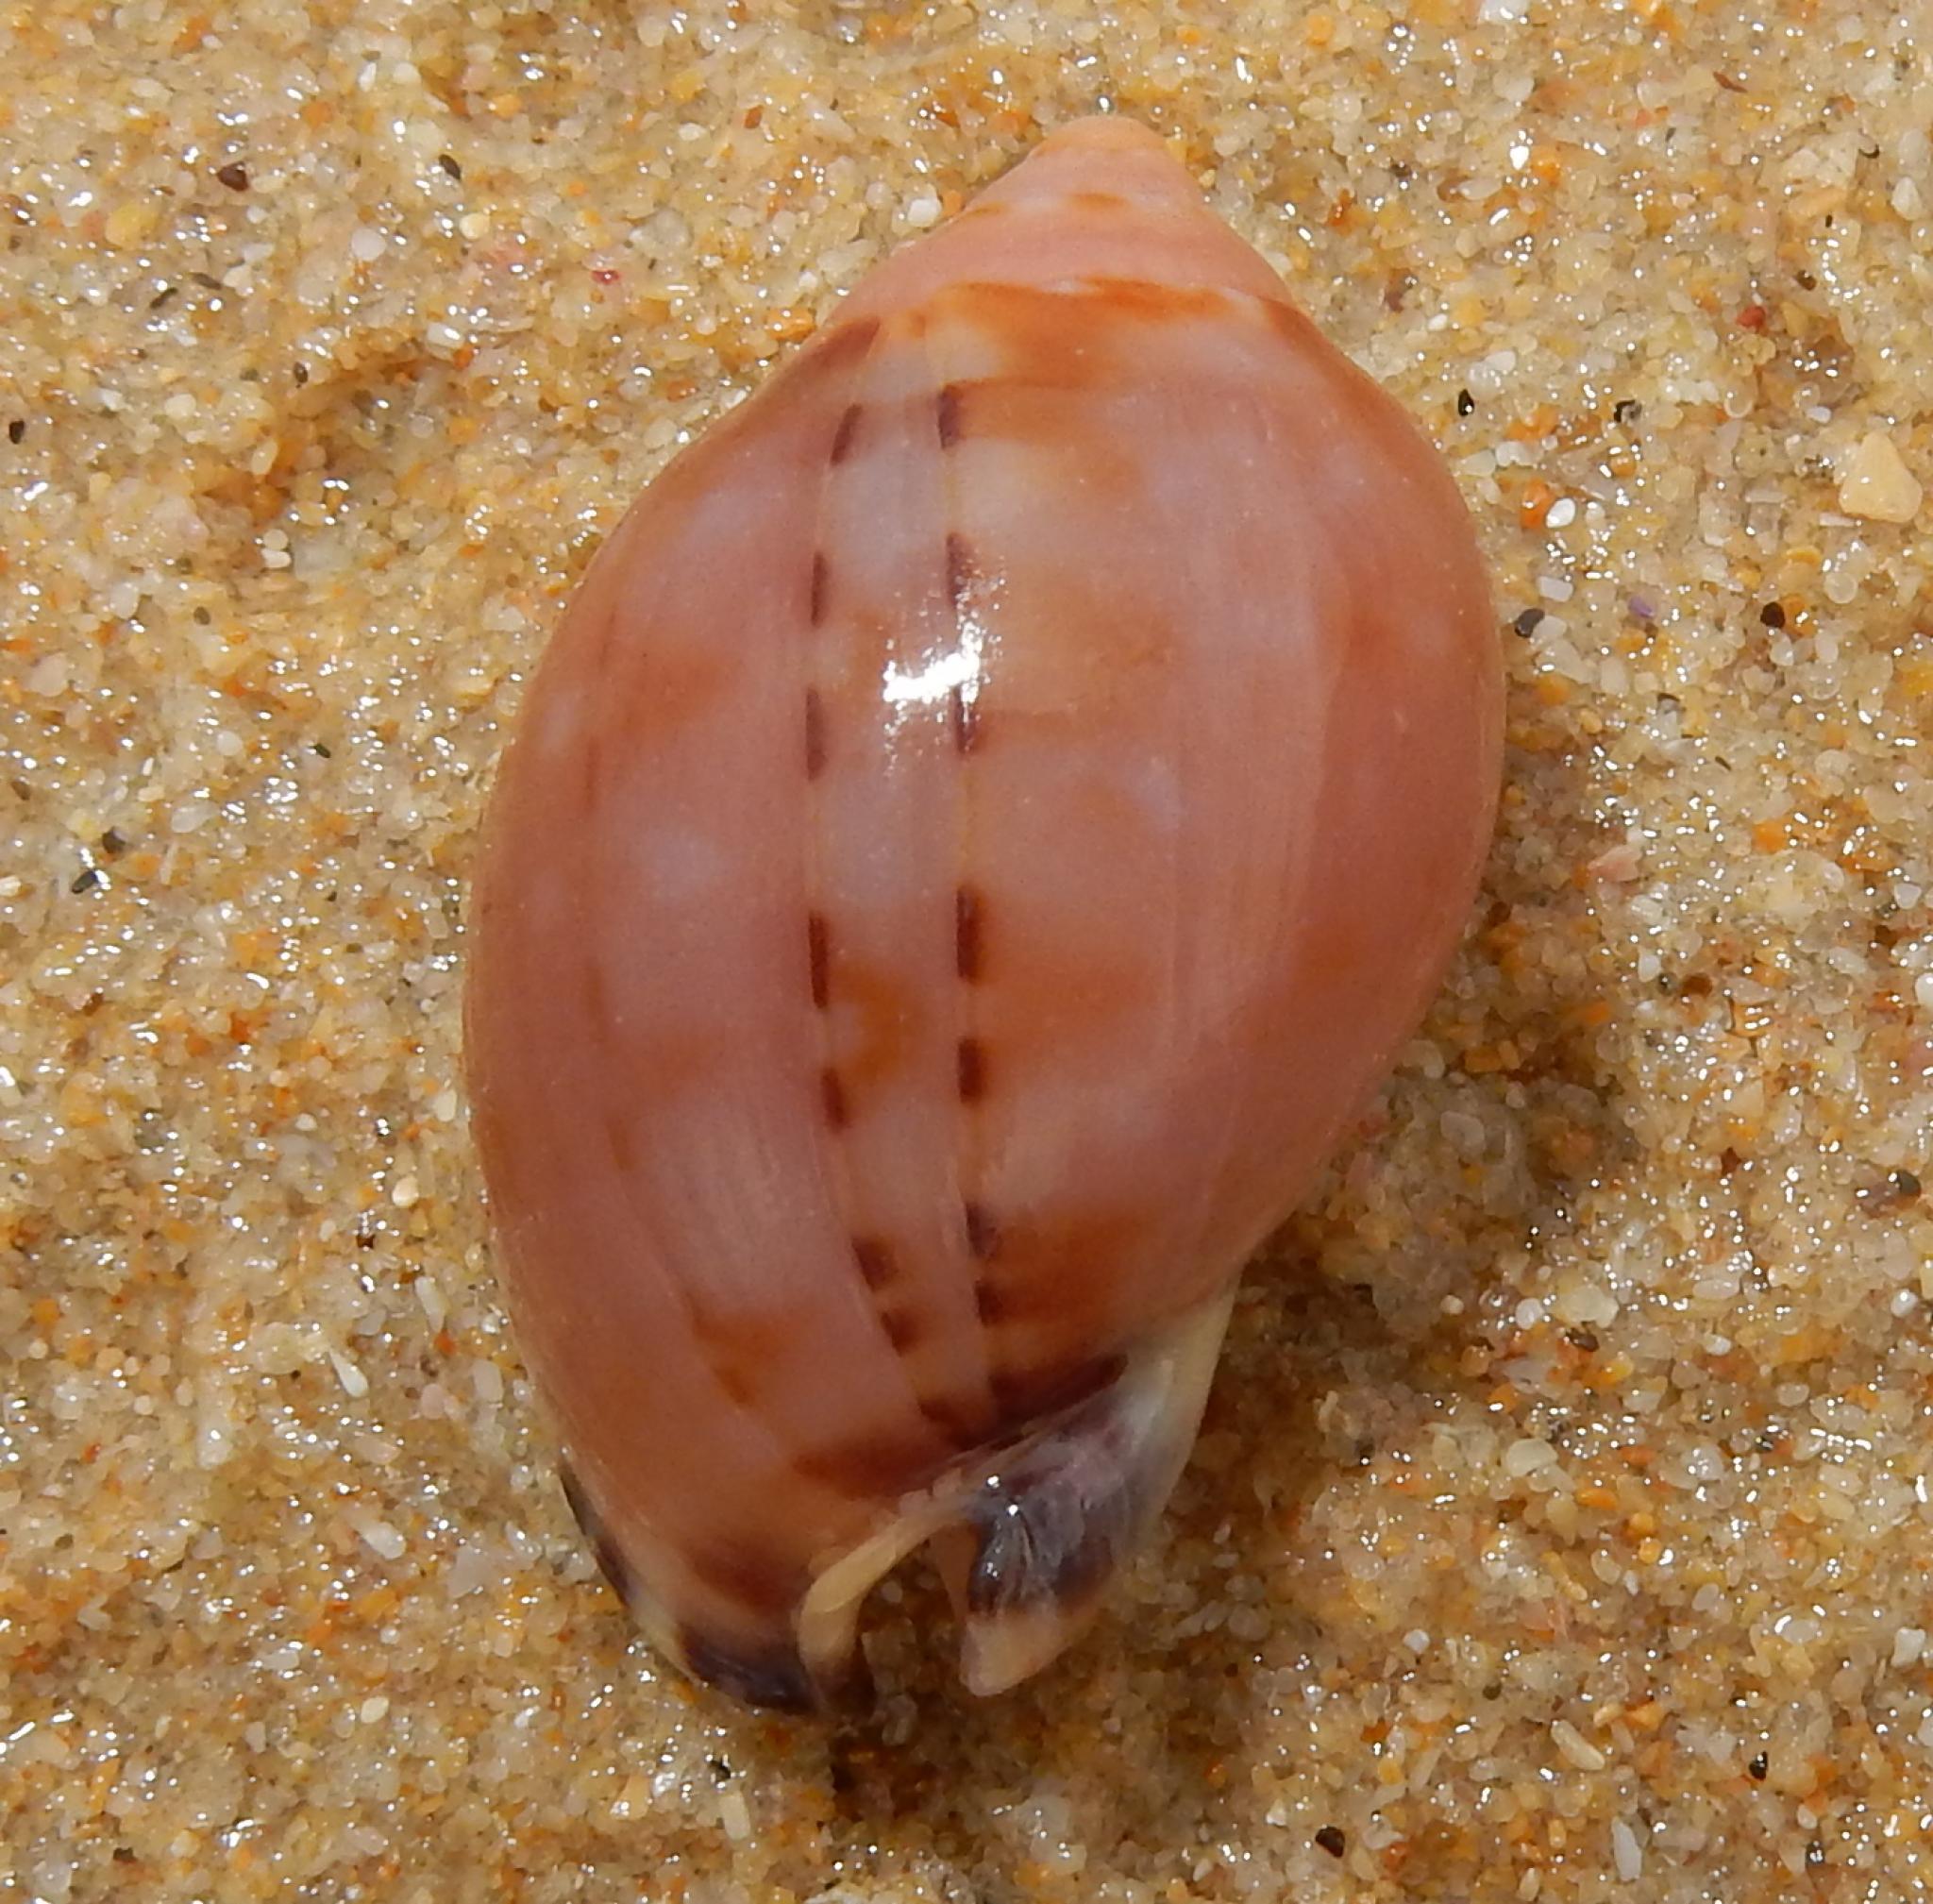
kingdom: Animalia
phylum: Mollusca
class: Gastropoda
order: Littorinimorpha
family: Cassidae
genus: Semicassis
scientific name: Semicassis zeylanica
